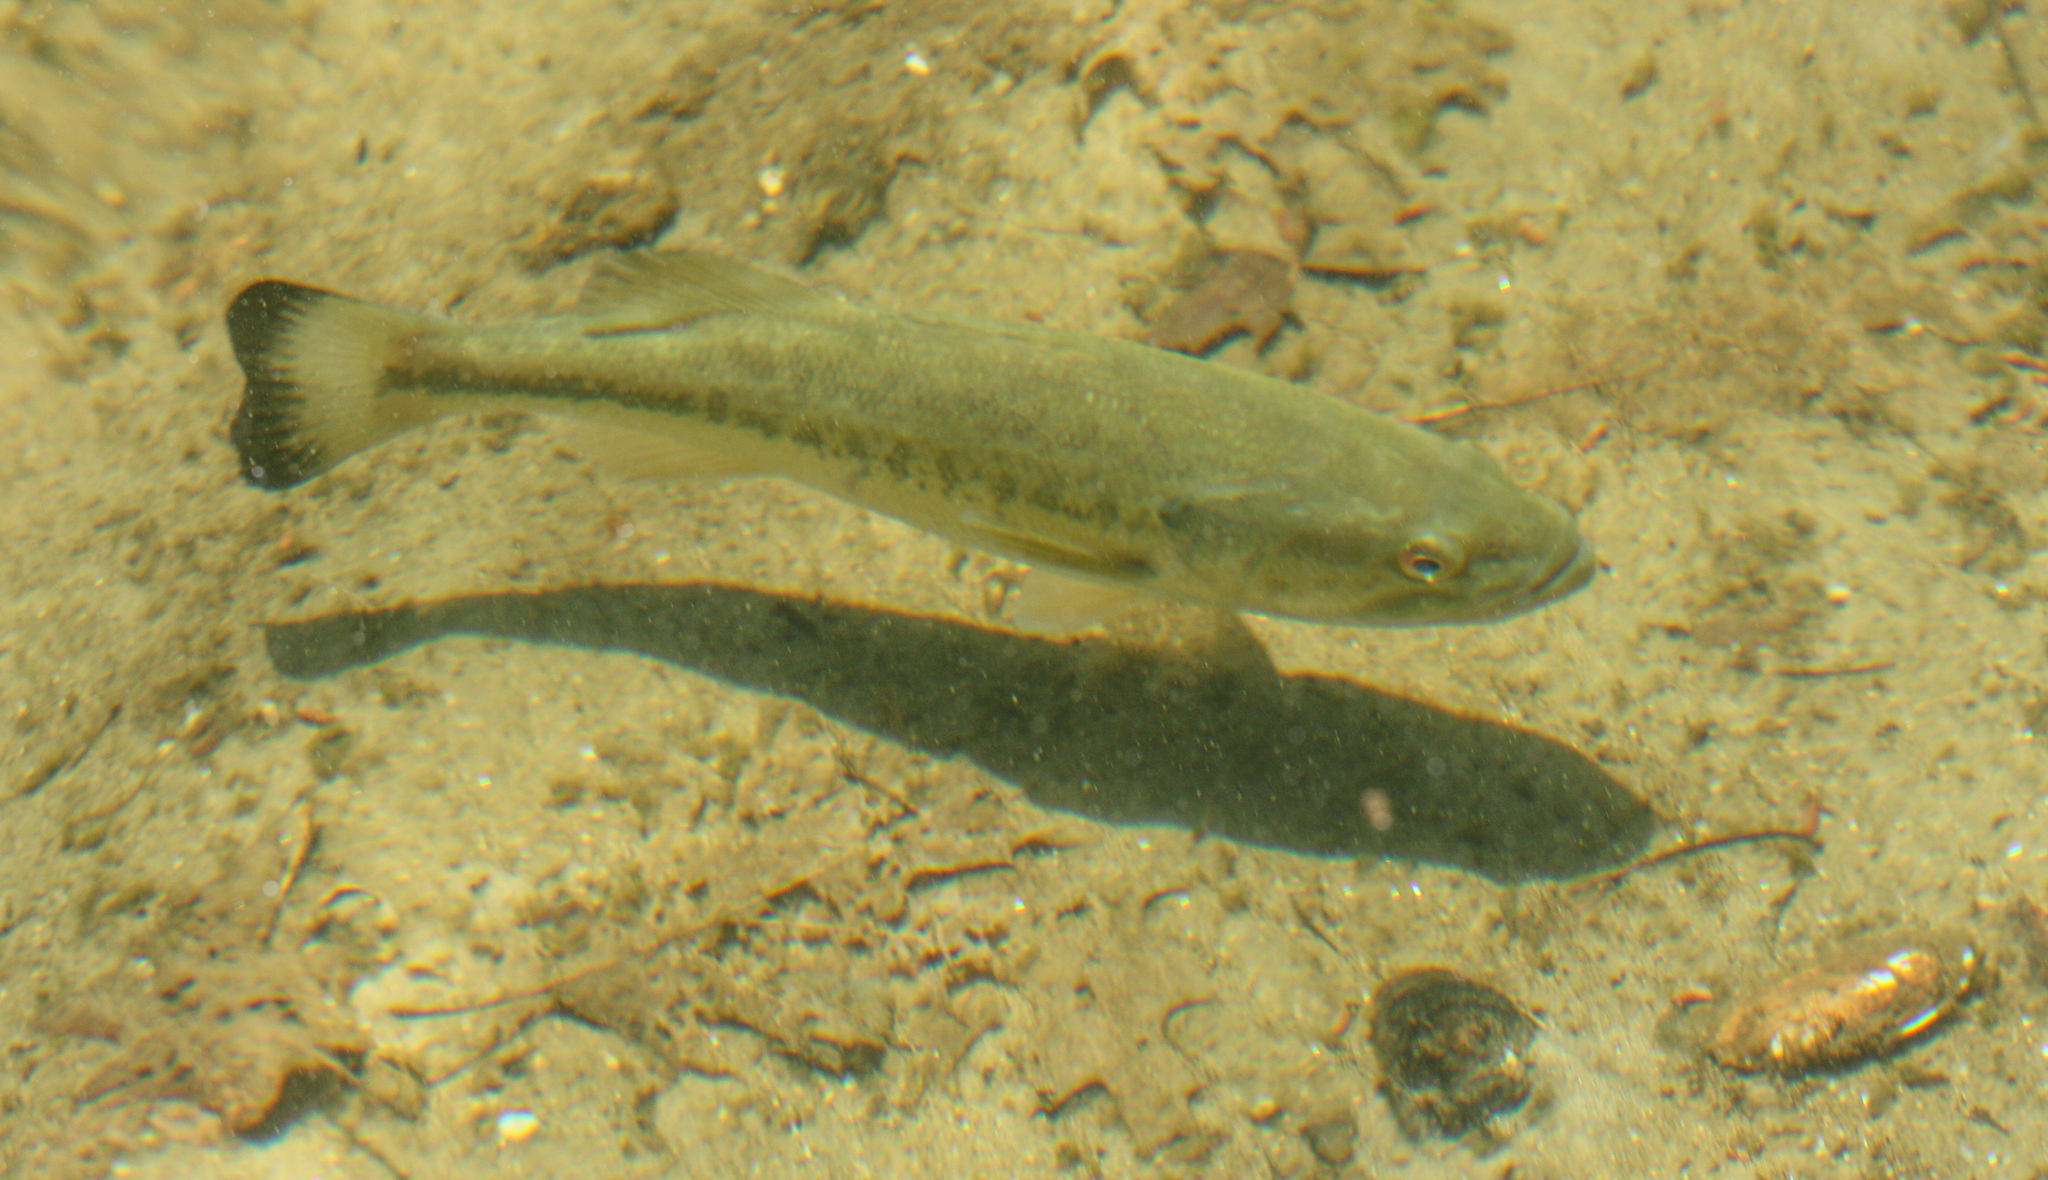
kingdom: Animalia
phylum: Chordata
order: Perciformes
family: Centrarchidae
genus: Micropterus
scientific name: Micropterus
